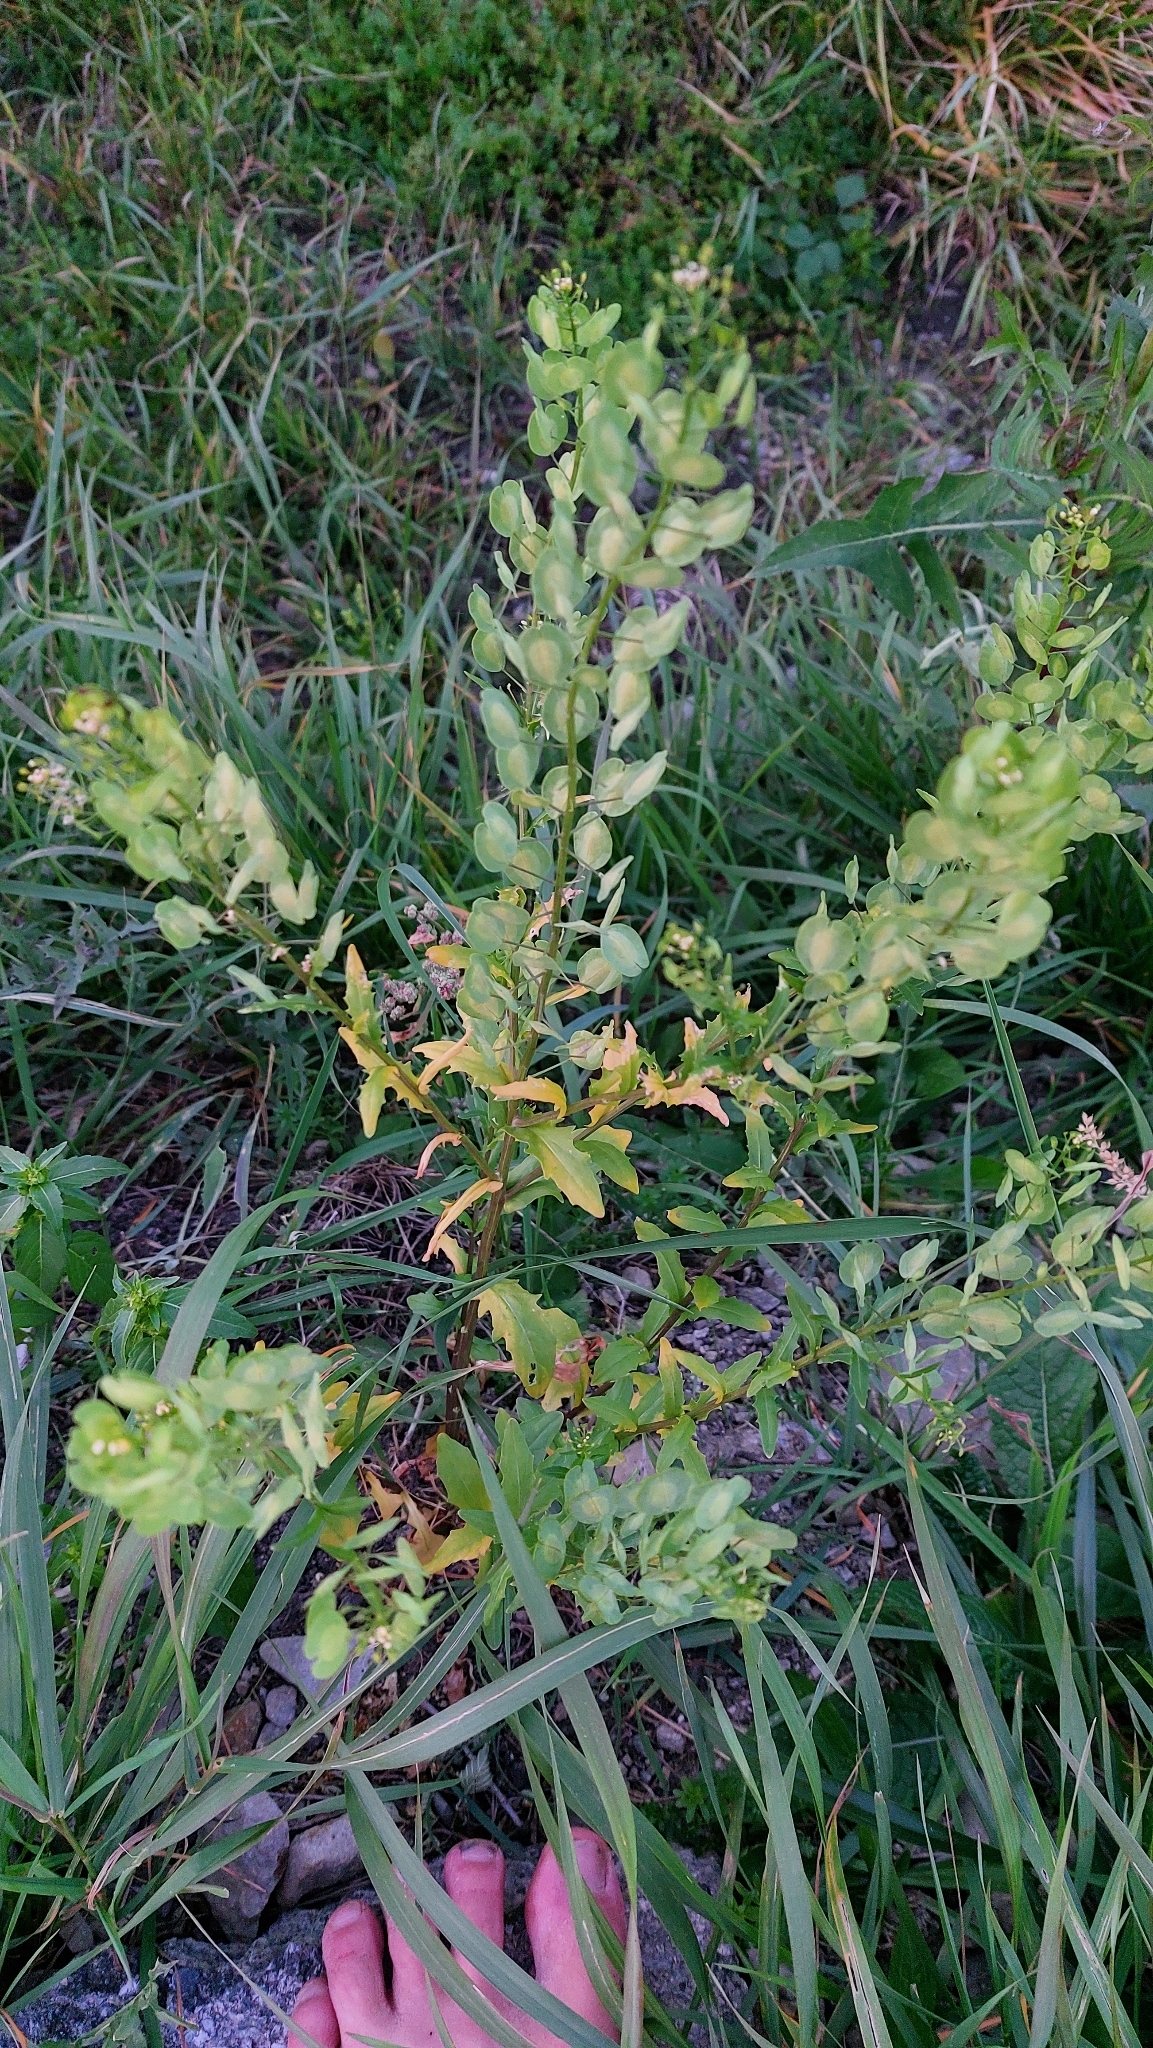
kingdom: Plantae
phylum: Tracheophyta
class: Magnoliopsida
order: Brassicales
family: Brassicaceae
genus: Thlaspi
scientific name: Thlaspi arvense
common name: Field pennycress
